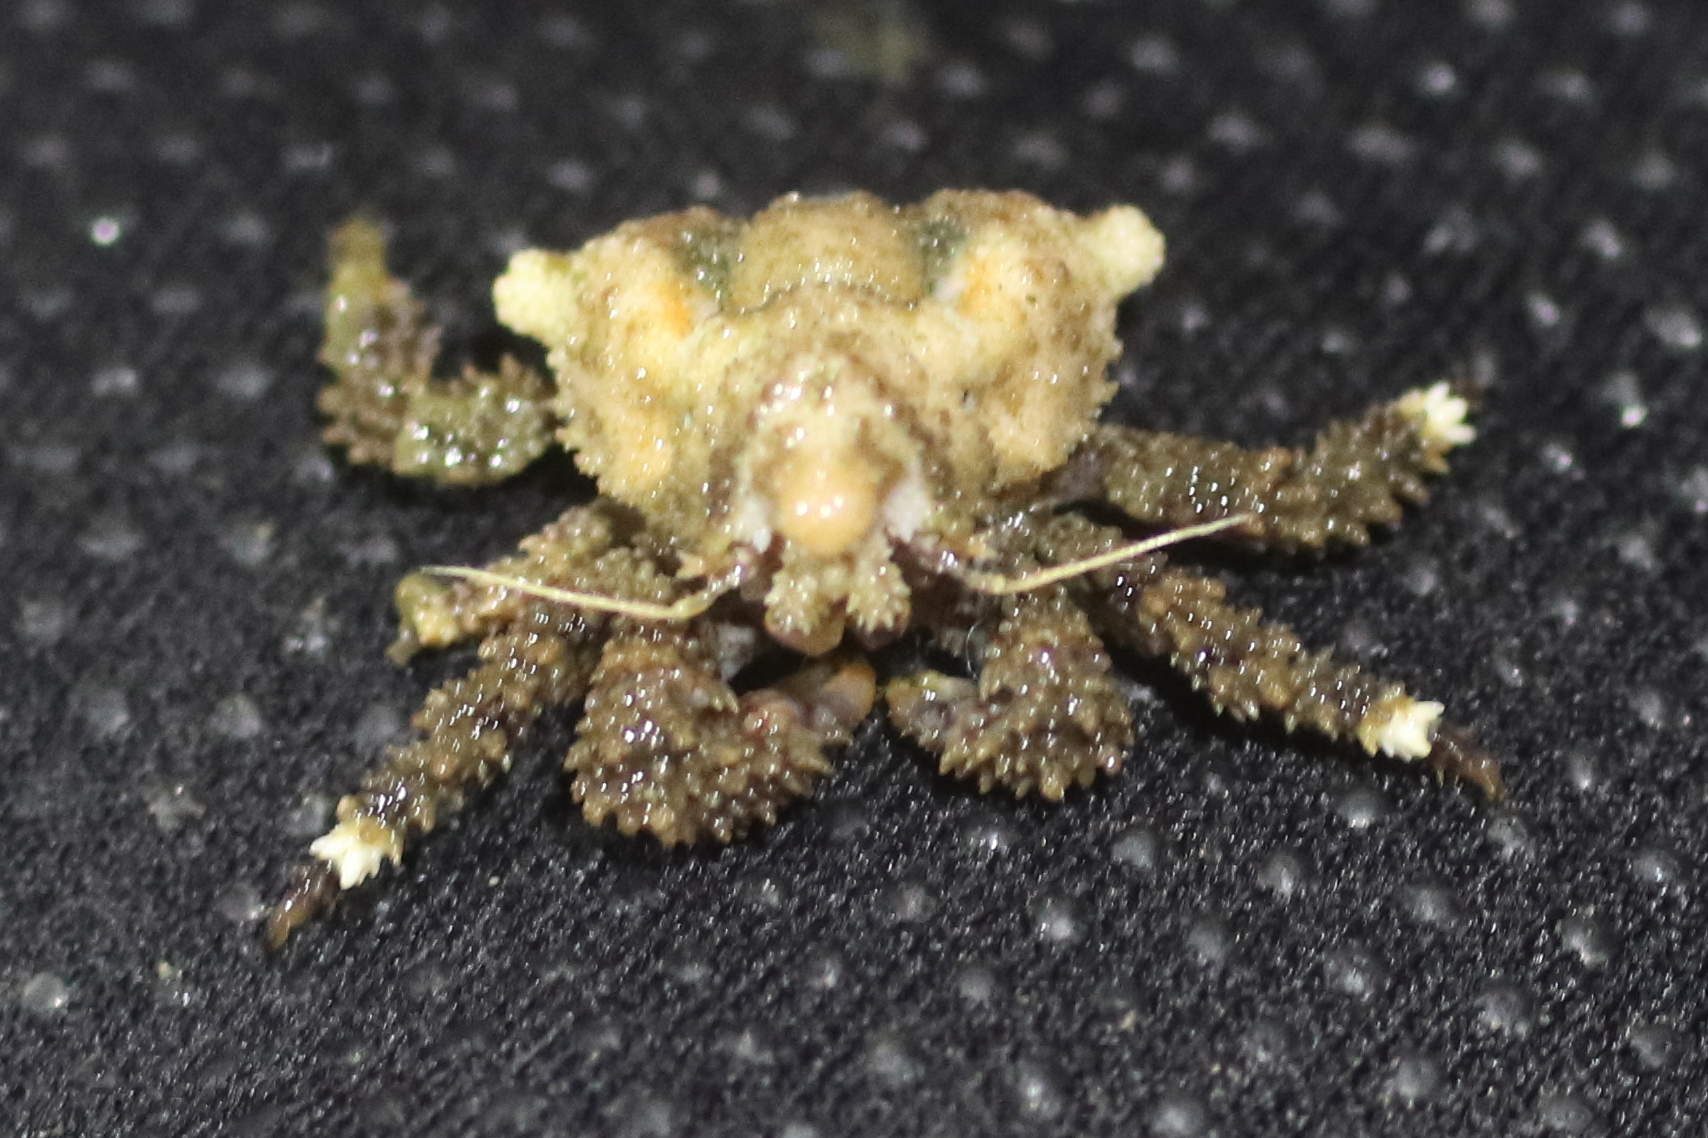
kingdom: Animalia
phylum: Arthropoda
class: Malacostraca
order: Decapoda
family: Lithodidae
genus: Rhinolithodes
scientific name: Rhinolithodes wosnessenskii
